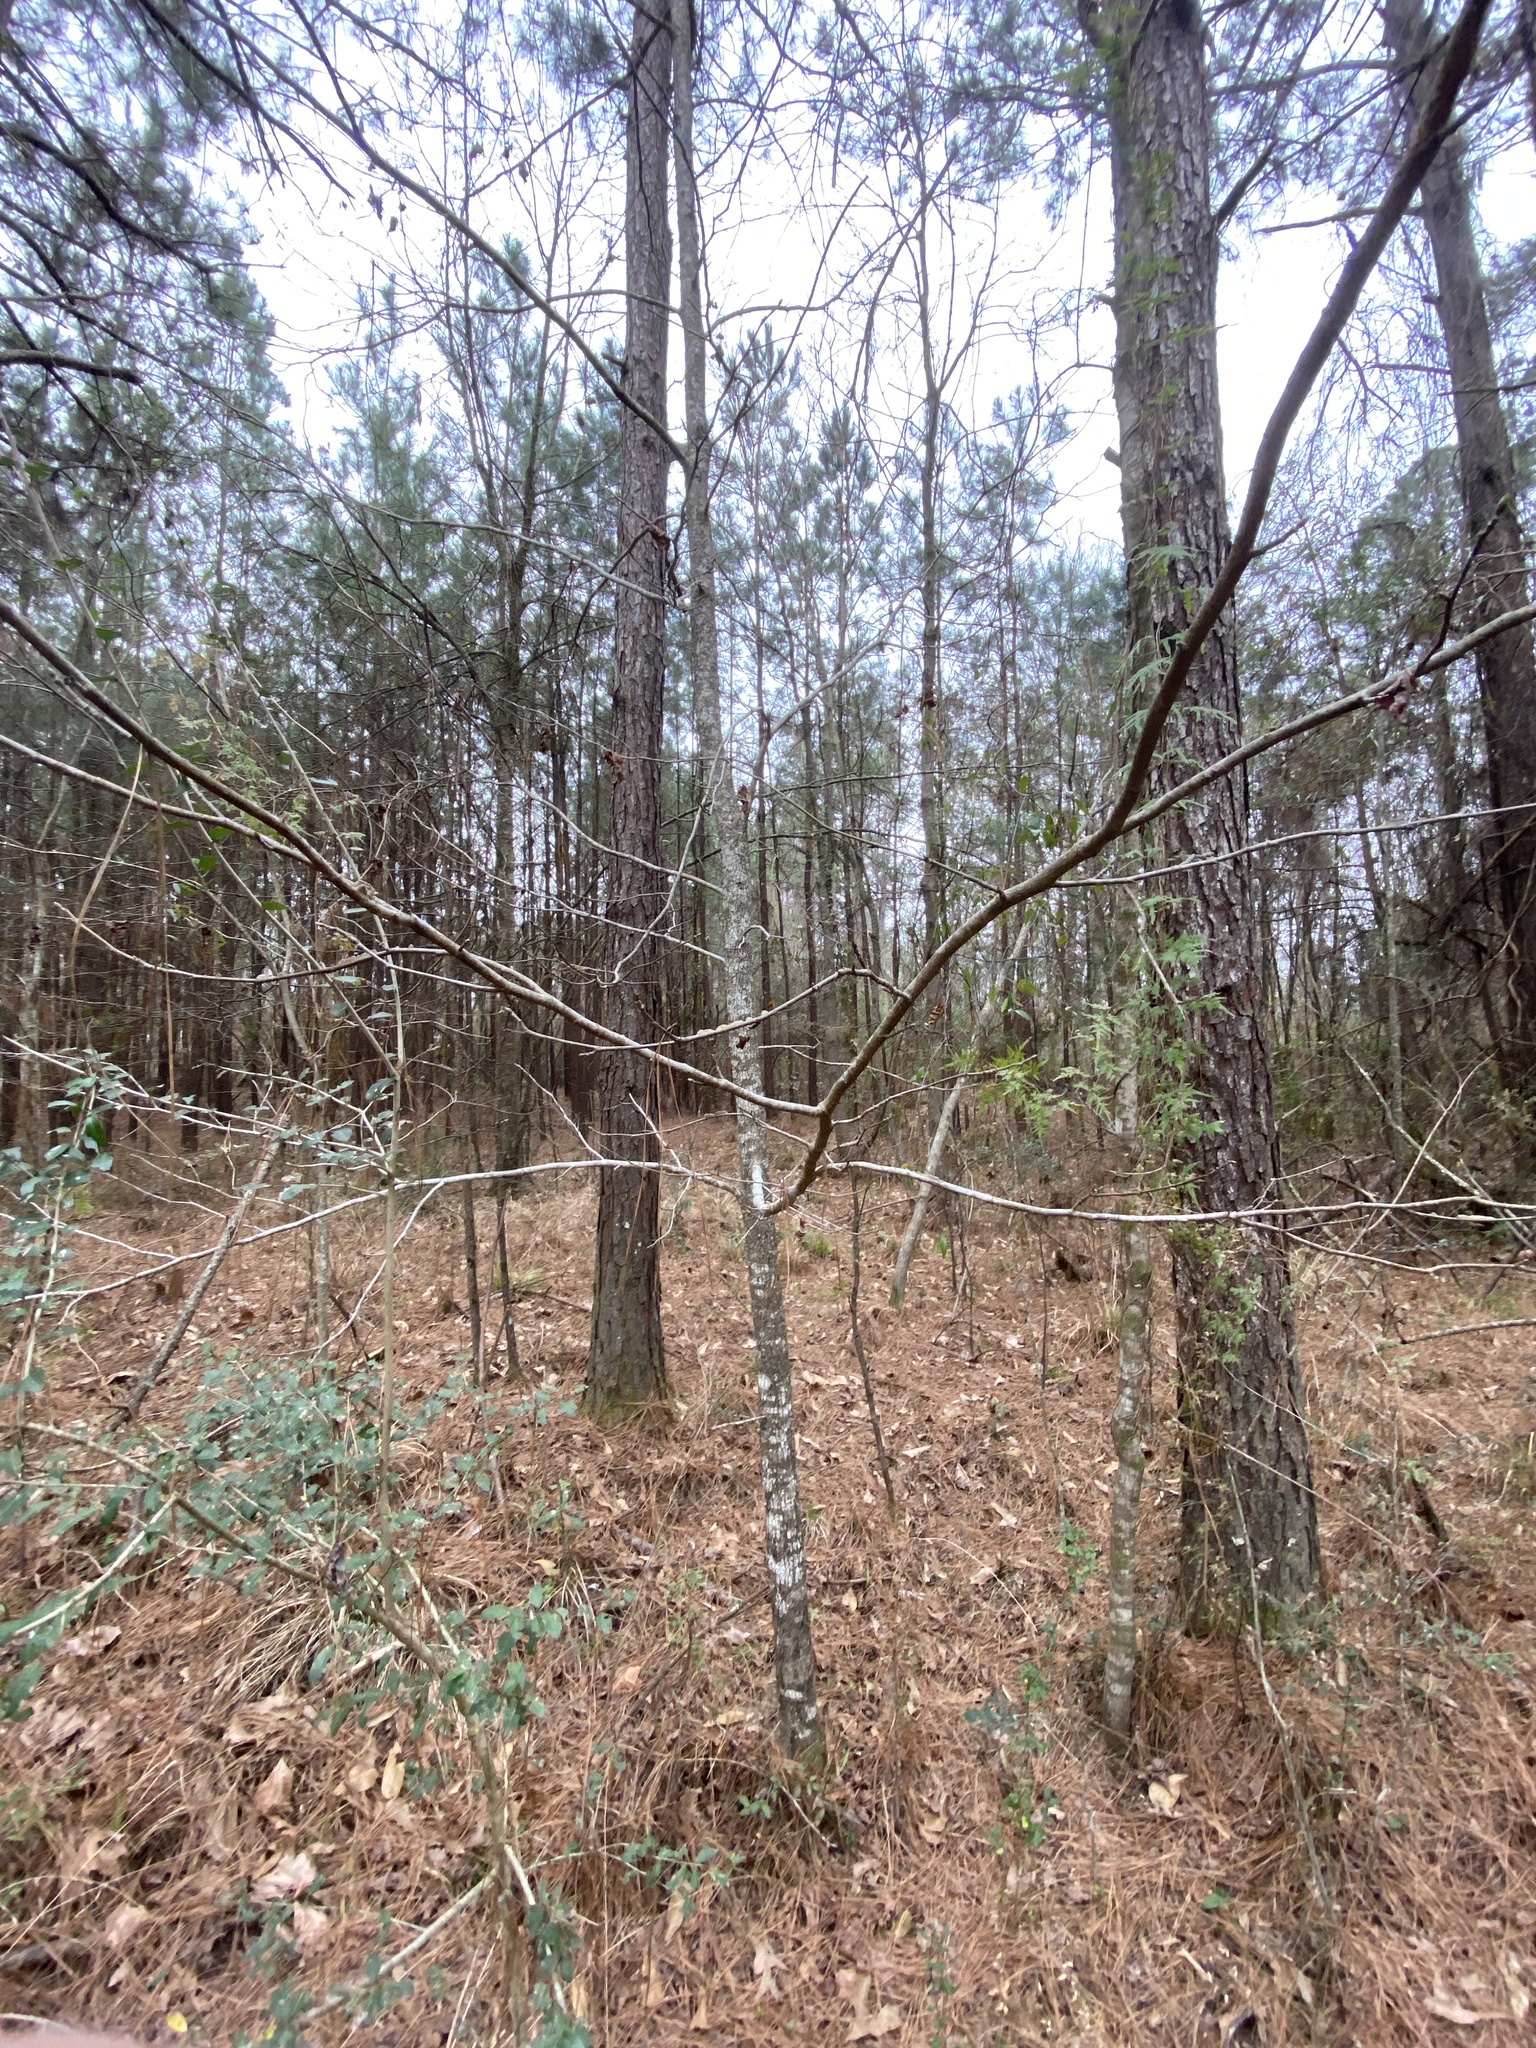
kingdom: Plantae
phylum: Tracheophyta
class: Magnoliopsida
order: Rosales
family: Ulmaceae
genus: Ulmus
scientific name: Ulmus alata
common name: Winged elm
